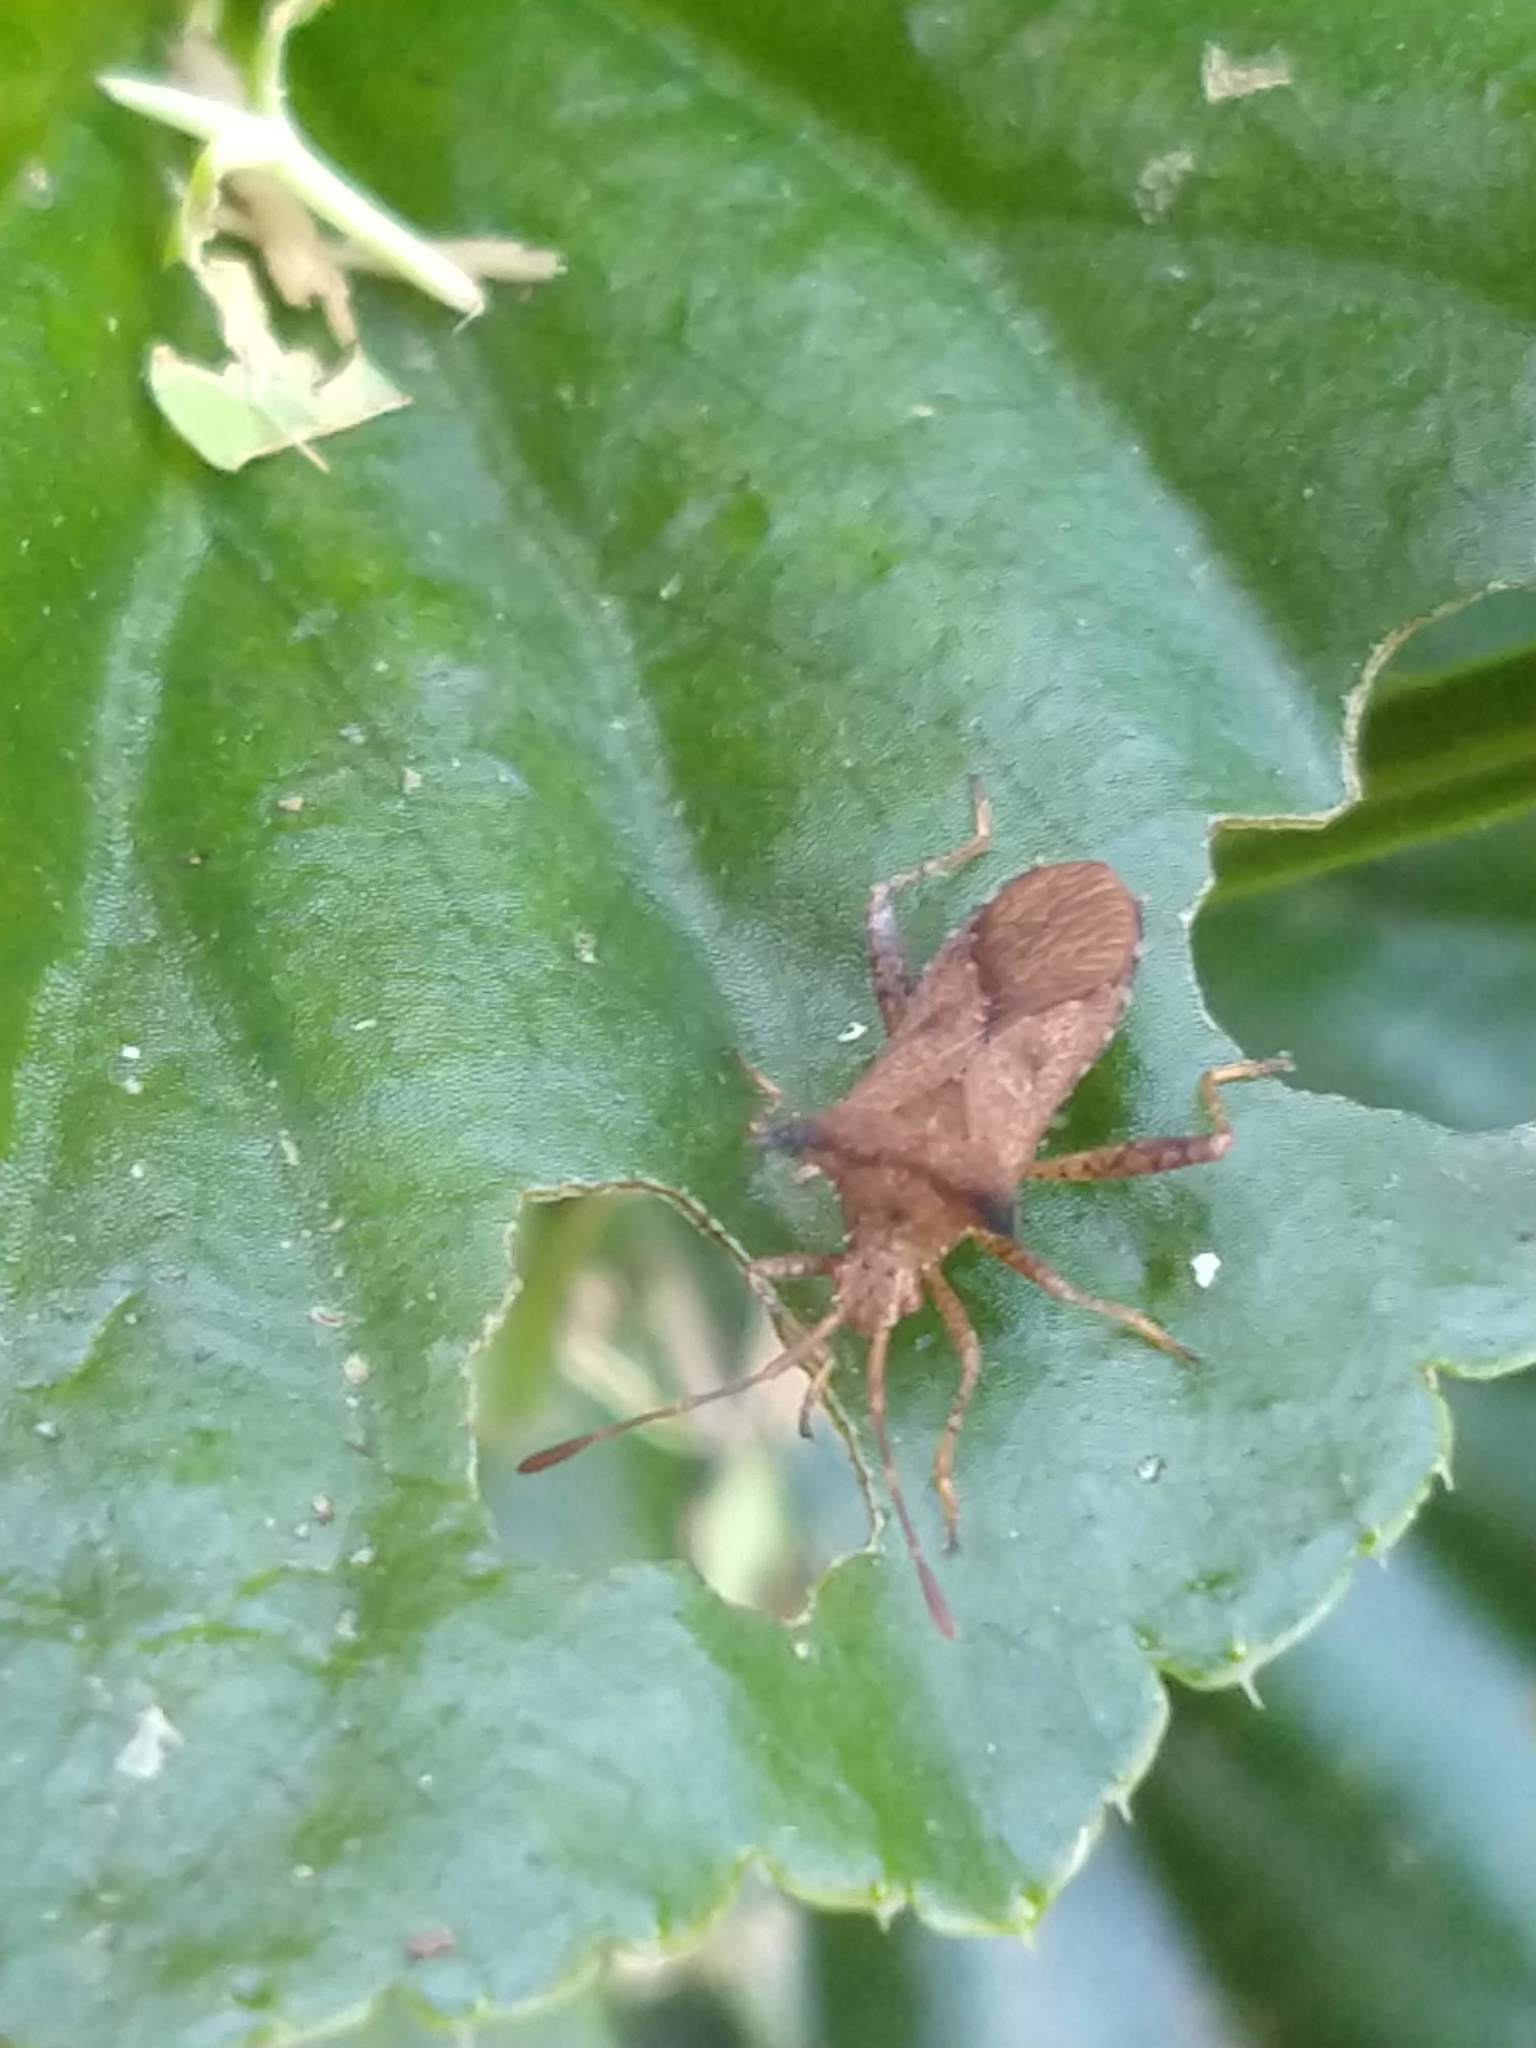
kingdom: Animalia
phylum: Arthropoda
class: Insecta
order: Hemiptera
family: Coreidae
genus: Zicca
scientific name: Zicca stali
